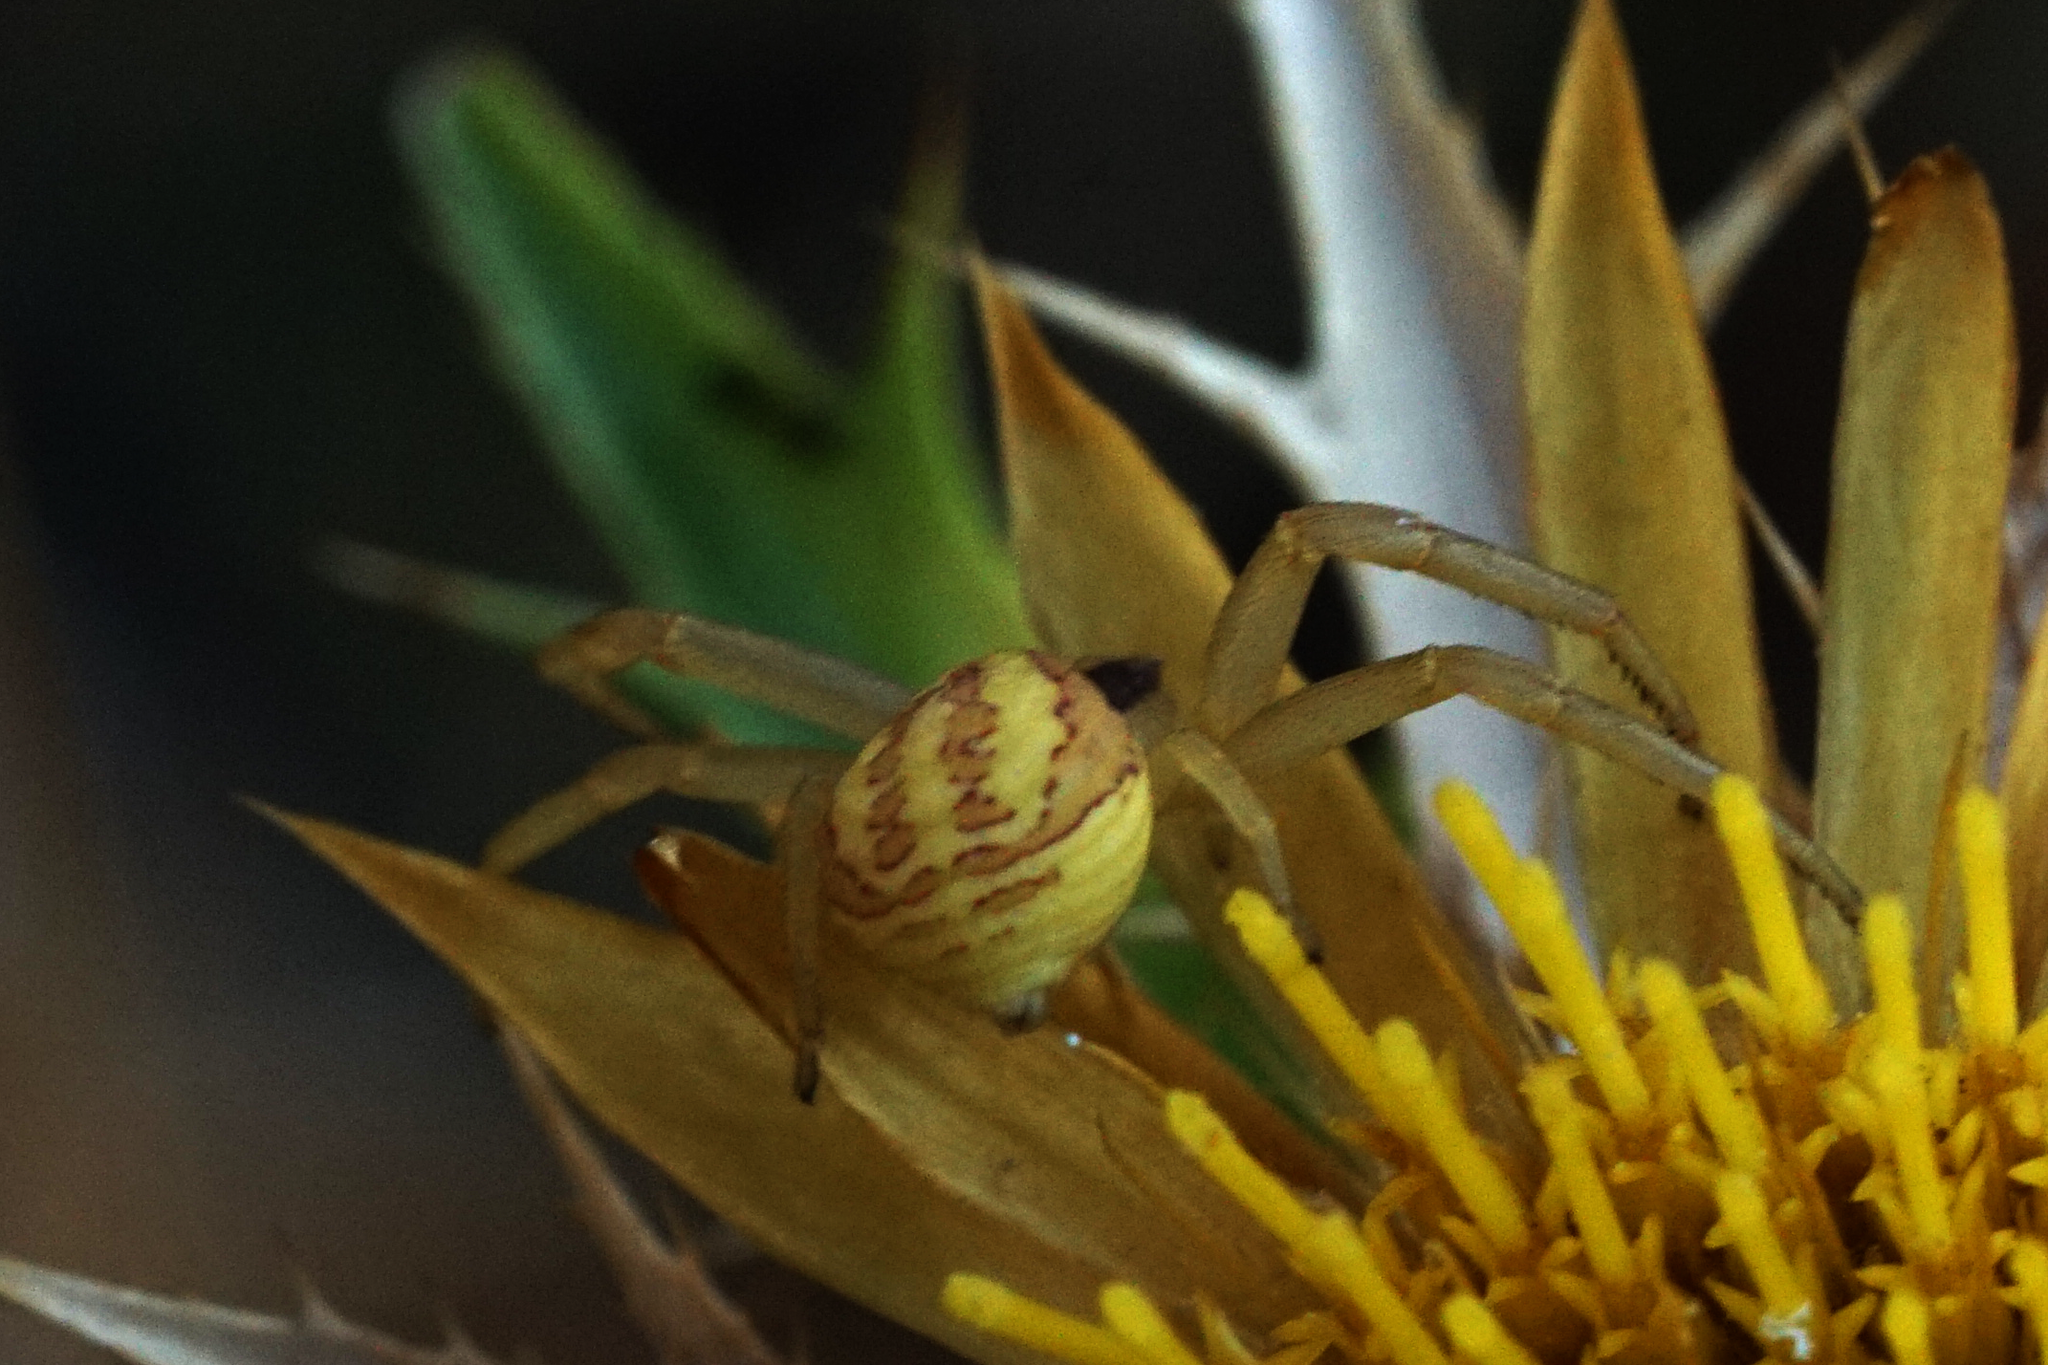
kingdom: Animalia
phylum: Arthropoda
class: Arachnida
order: Araneae
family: Thomisidae
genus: Runcinia
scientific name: Runcinia grammica
